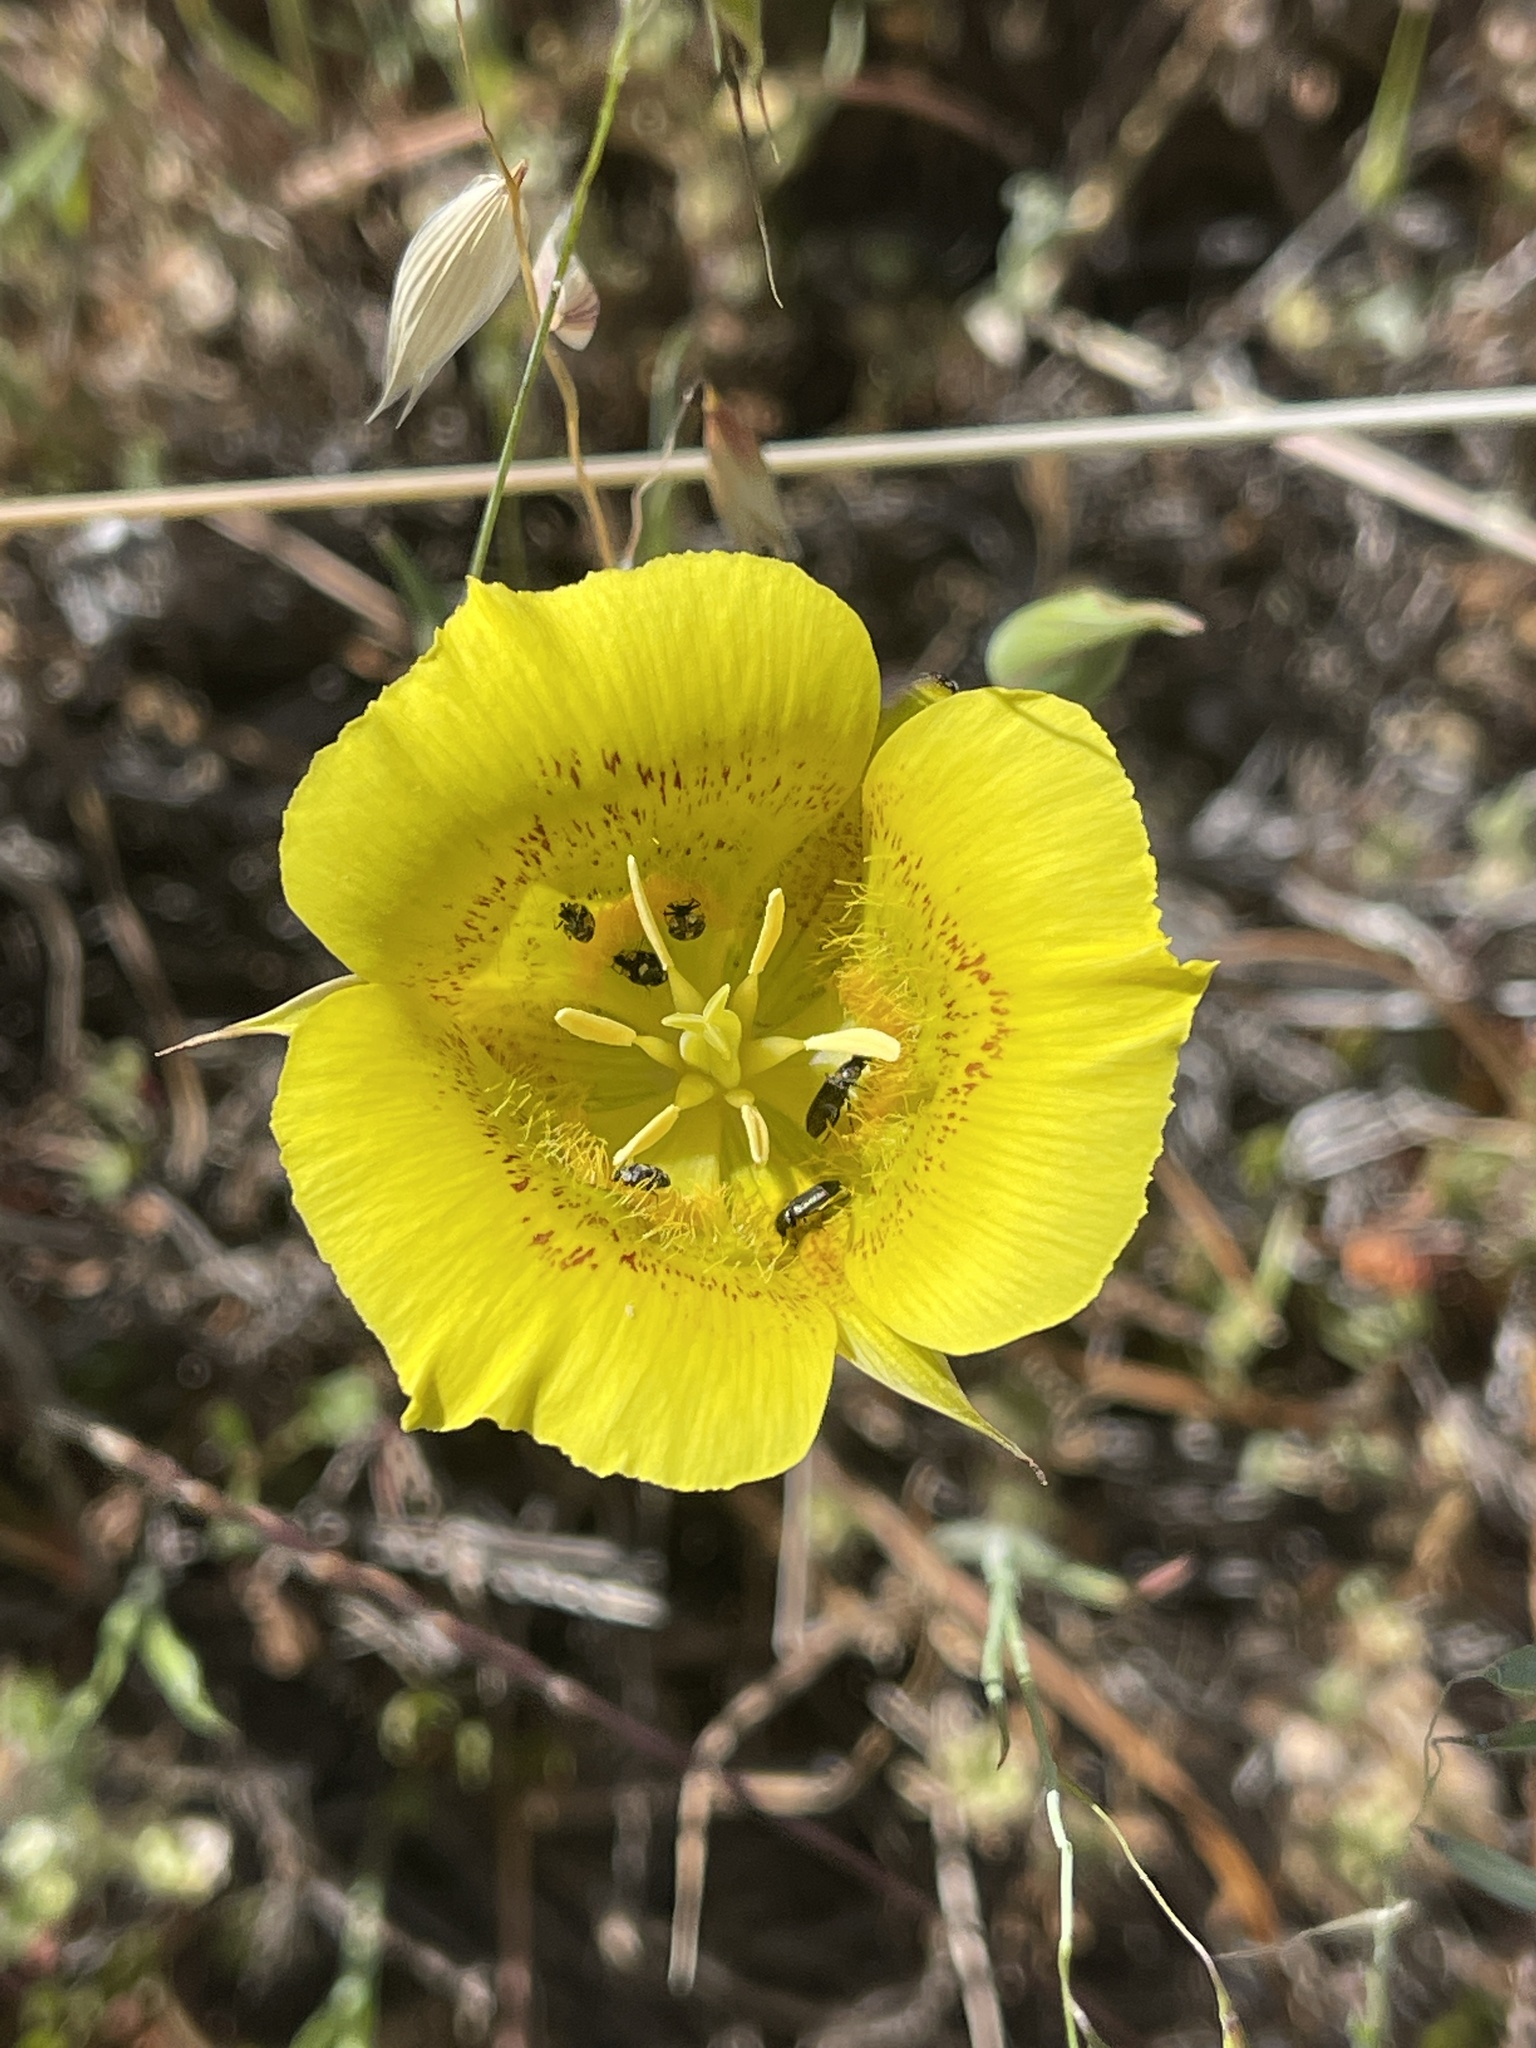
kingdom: Plantae
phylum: Tracheophyta
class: Liliopsida
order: Liliales
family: Liliaceae
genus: Calochortus
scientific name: Calochortus luteus
